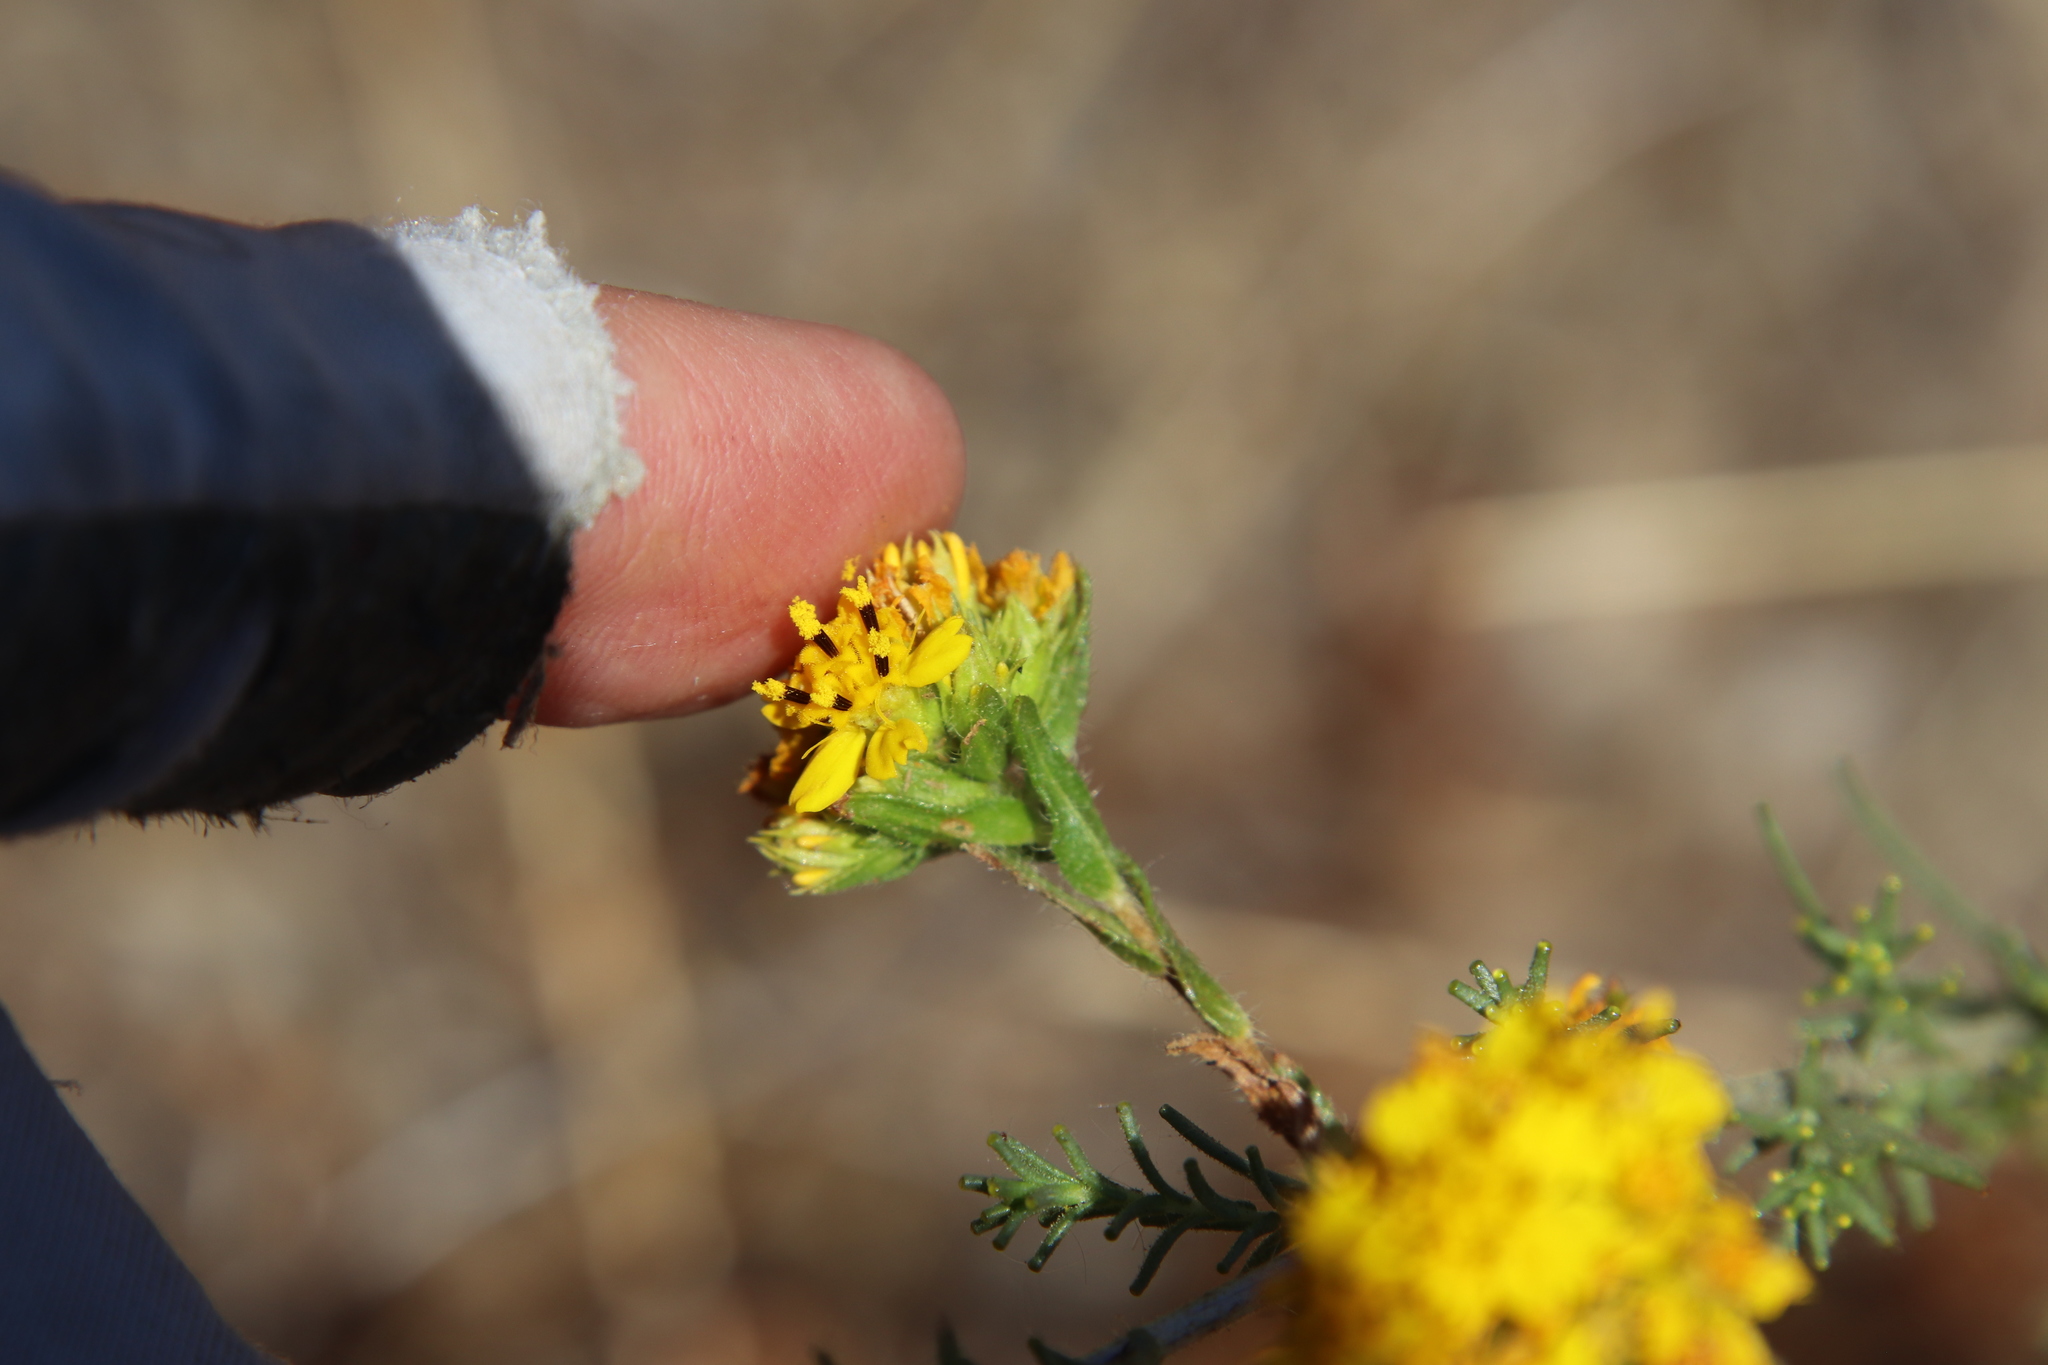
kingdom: Plantae
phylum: Tracheophyta
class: Magnoliopsida
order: Asterales
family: Asteraceae
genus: Holocarpha
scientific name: Holocarpha virgata
